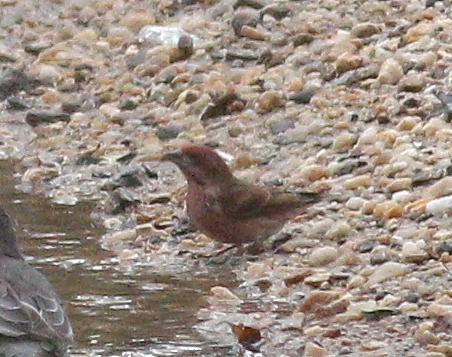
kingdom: Animalia
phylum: Chordata
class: Aves
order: Passeriformes
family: Fringillidae
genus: Haemorhous
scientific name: Haemorhous purpureus
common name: Purple finch
